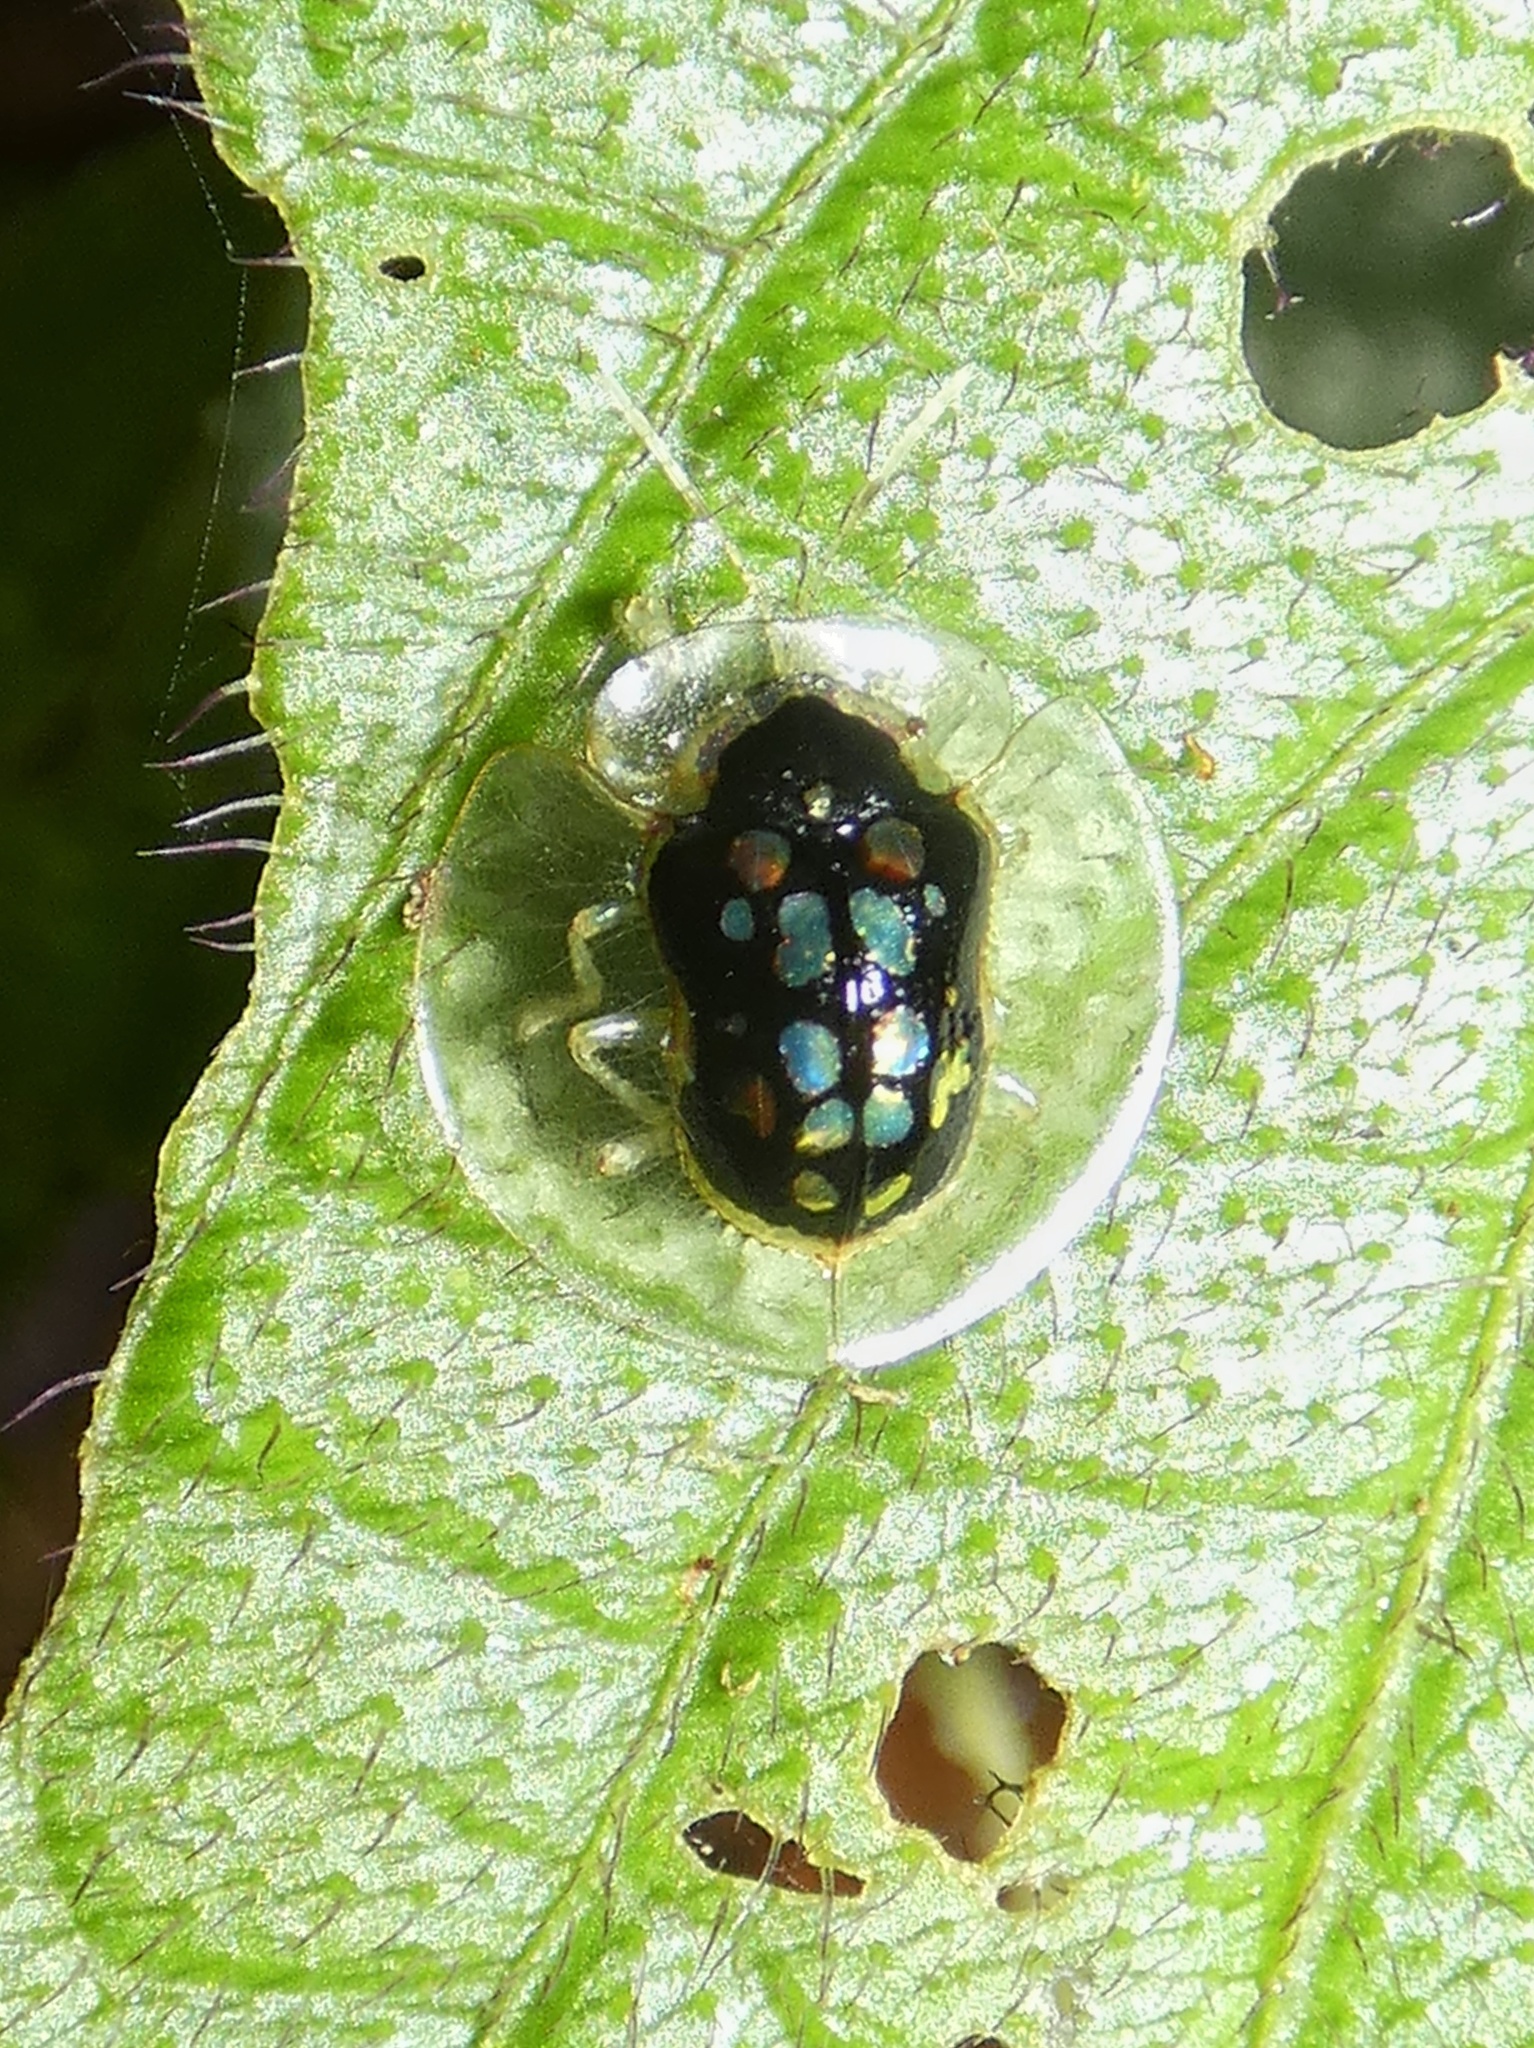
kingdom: Animalia
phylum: Arthropoda
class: Insecta
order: Coleoptera
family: Chrysomelidae
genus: Plagiometriona
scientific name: Plagiometriona latemarginata
